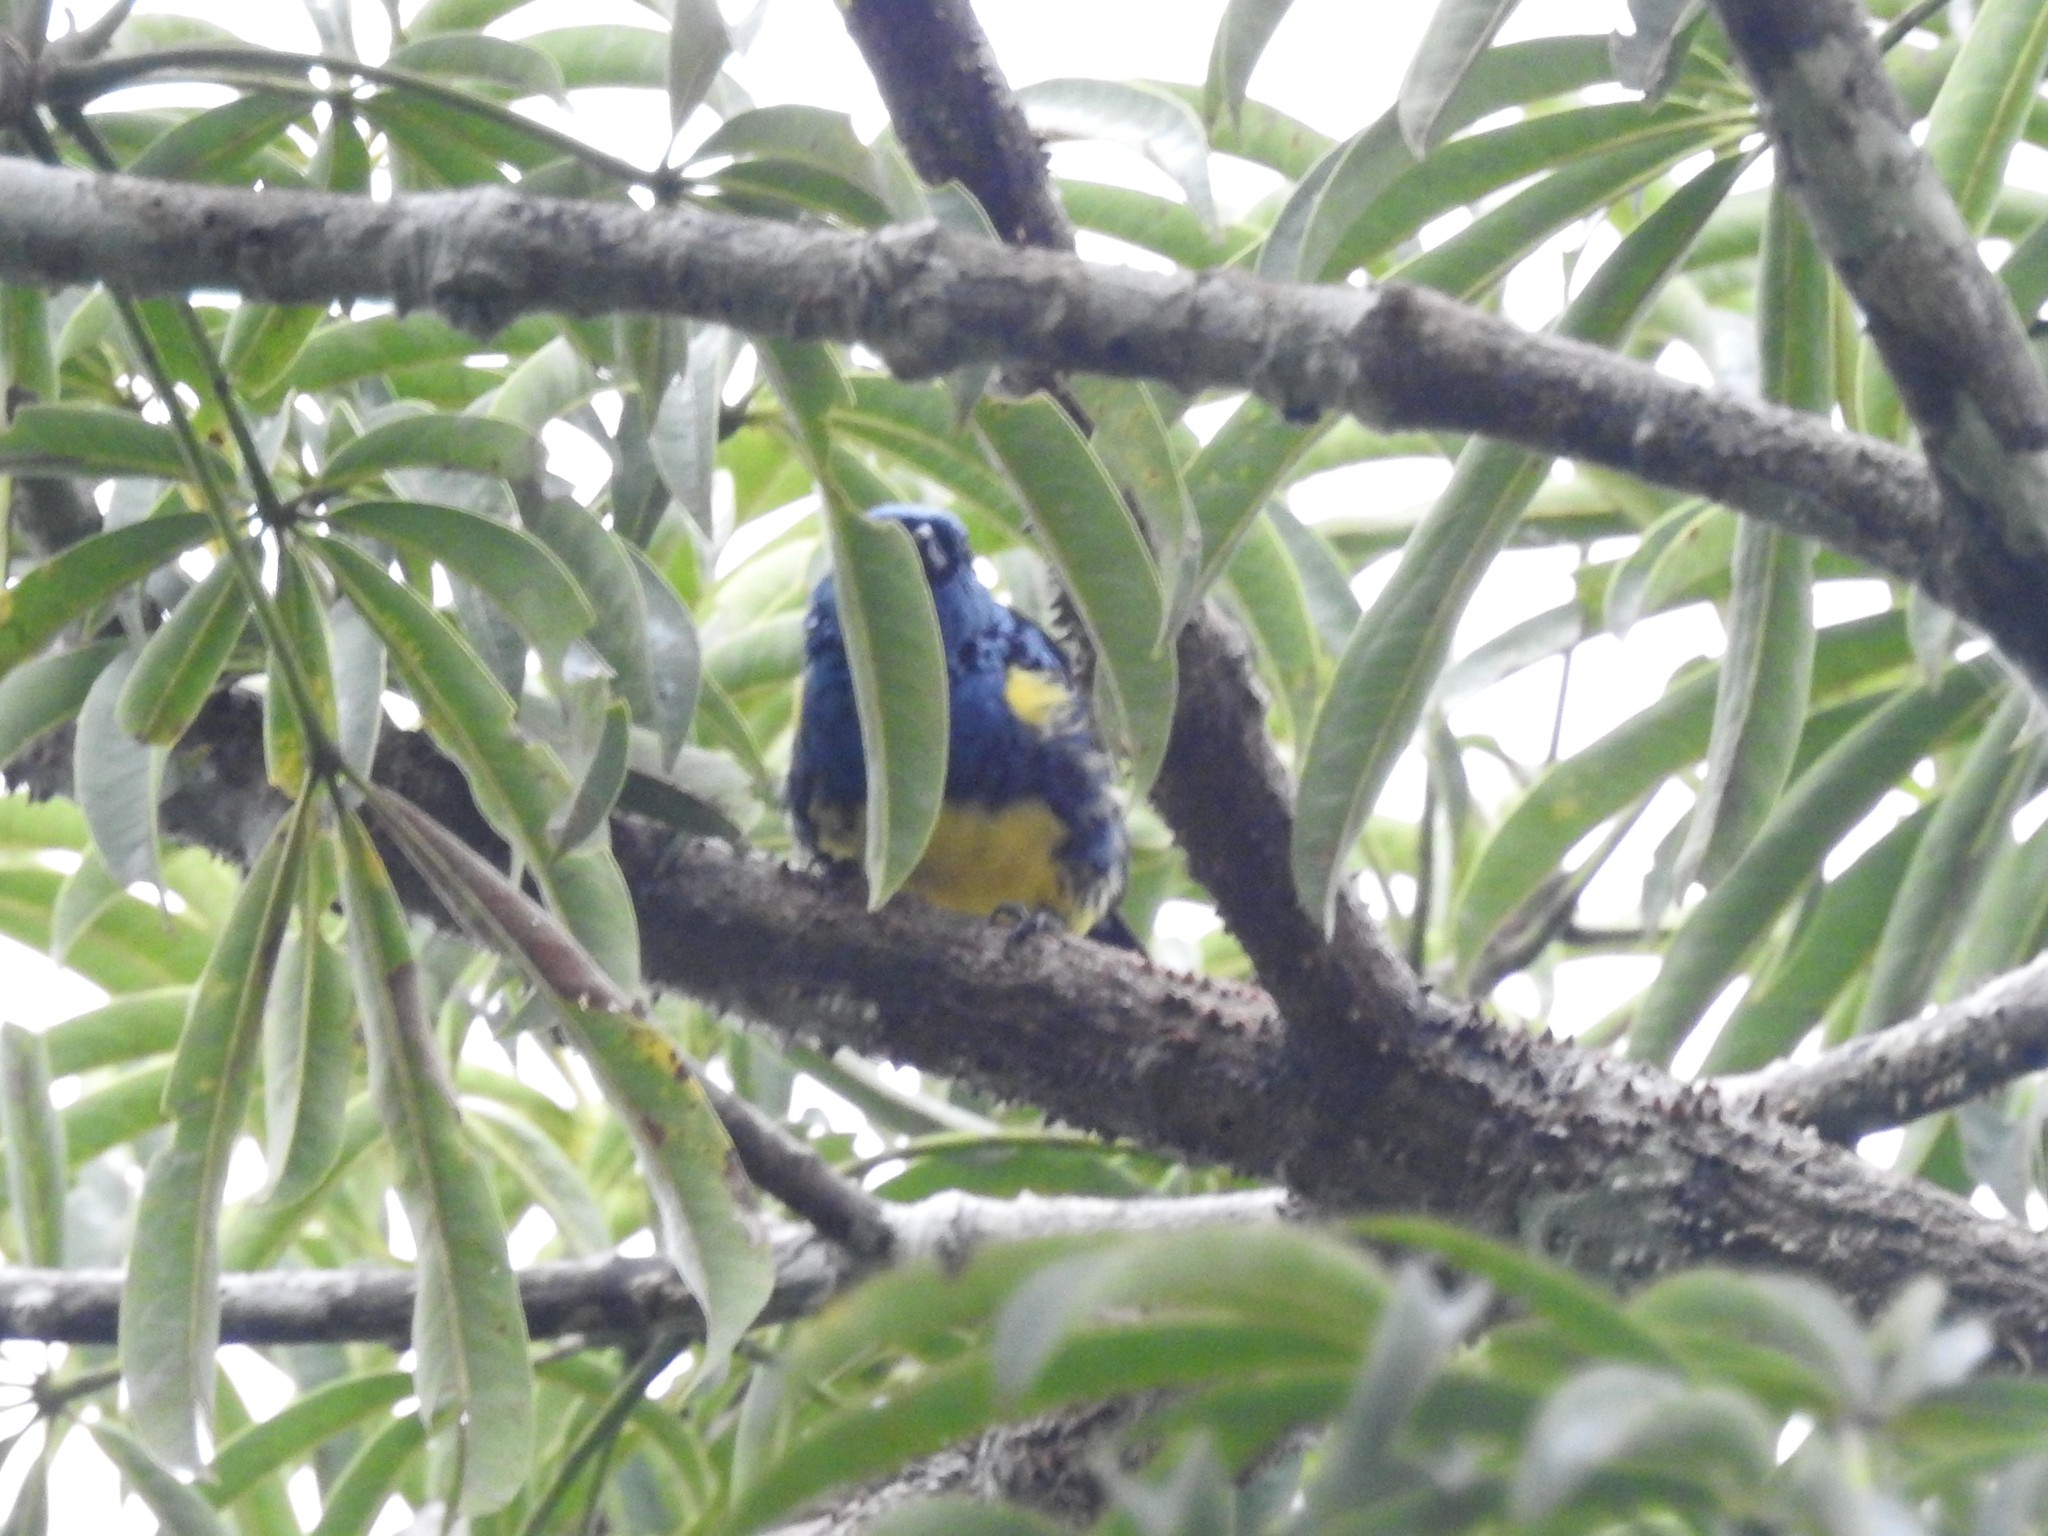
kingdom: Animalia
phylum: Chordata
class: Aves
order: Passeriformes
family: Thraupidae
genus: Tangara
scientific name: Tangara mexicana
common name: Turquoise tanager
